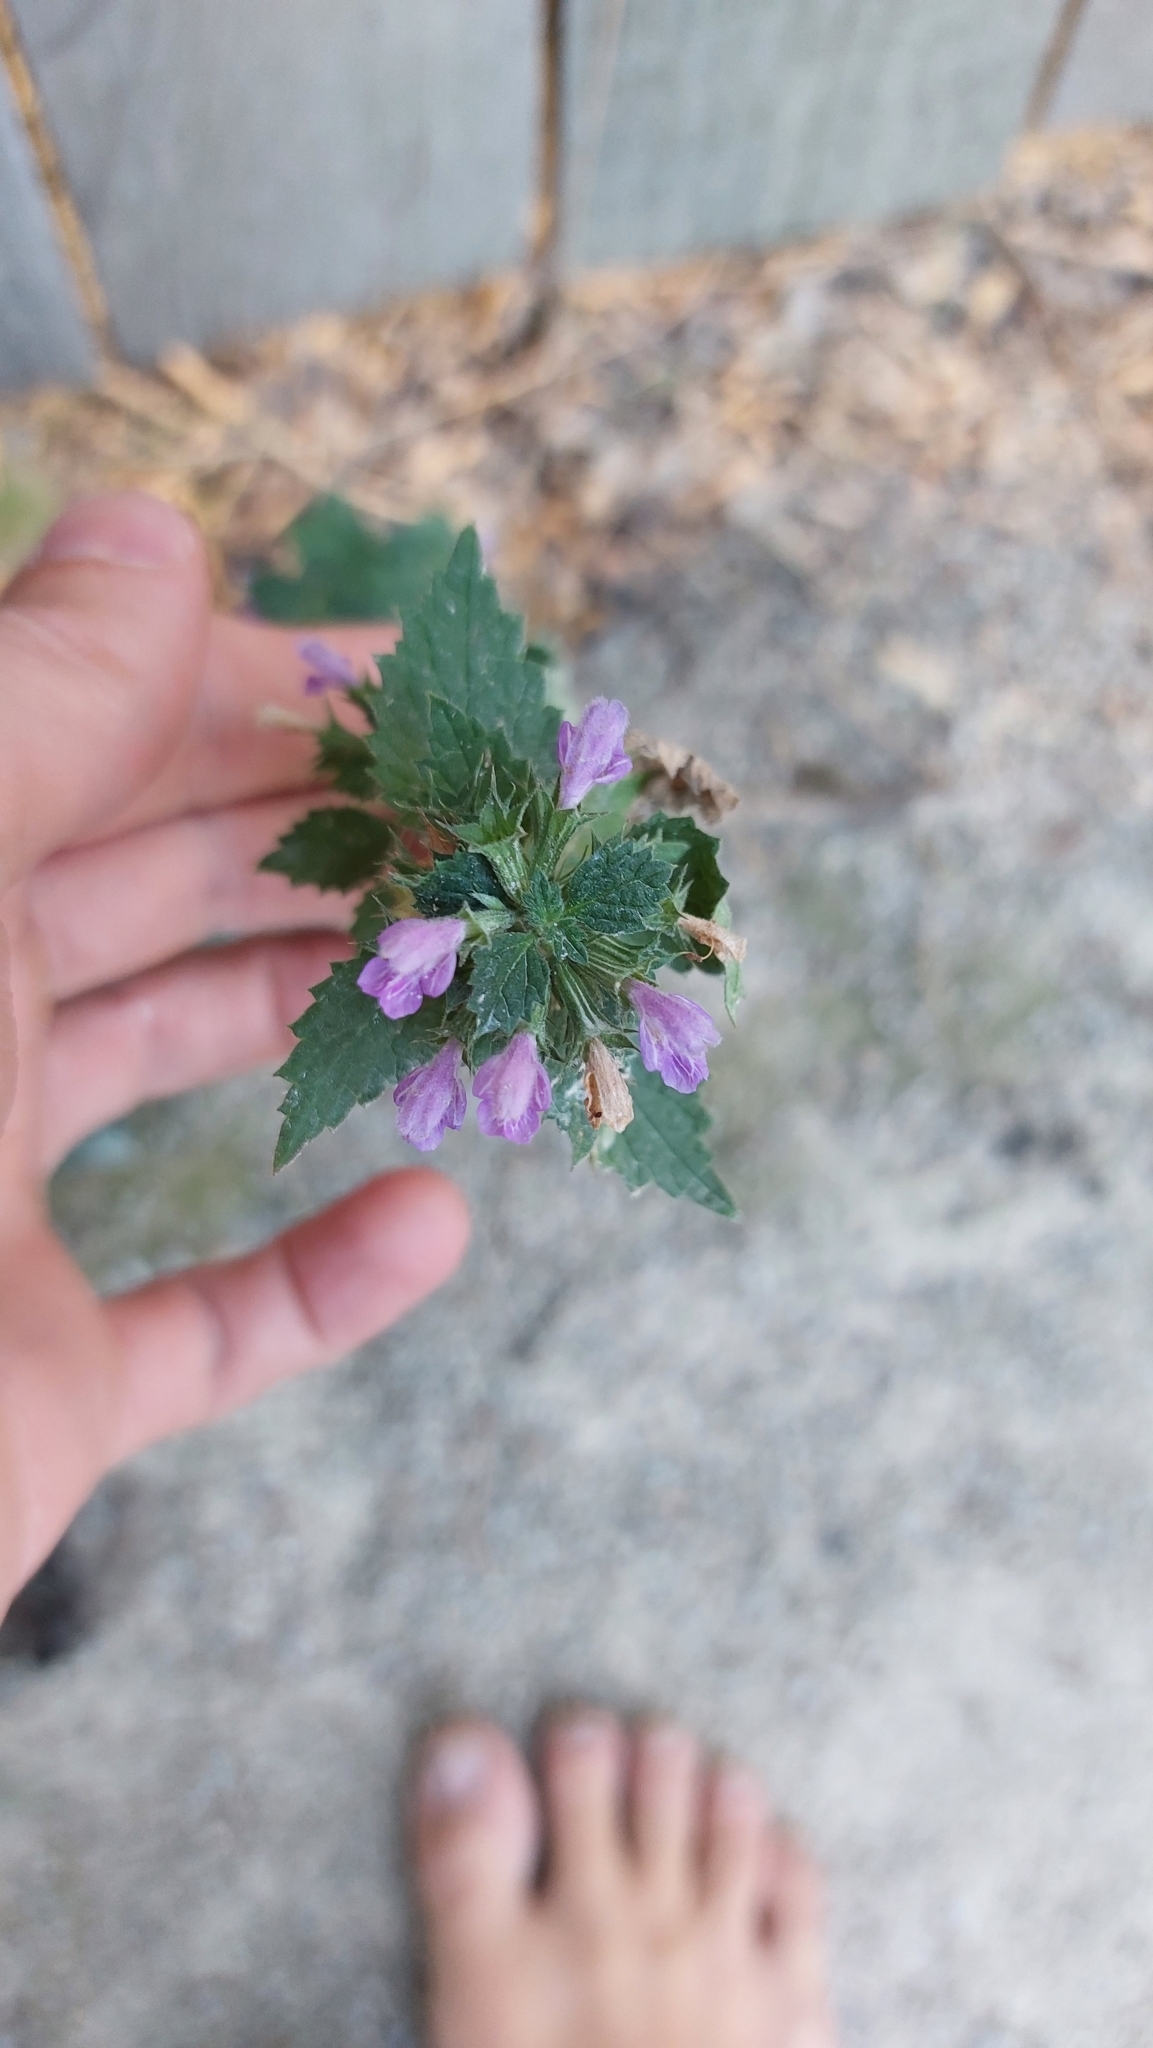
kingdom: Plantae
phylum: Tracheophyta
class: Magnoliopsida
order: Lamiales
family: Lamiaceae
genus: Ballota
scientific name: Ballota nigra
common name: Black horehound
